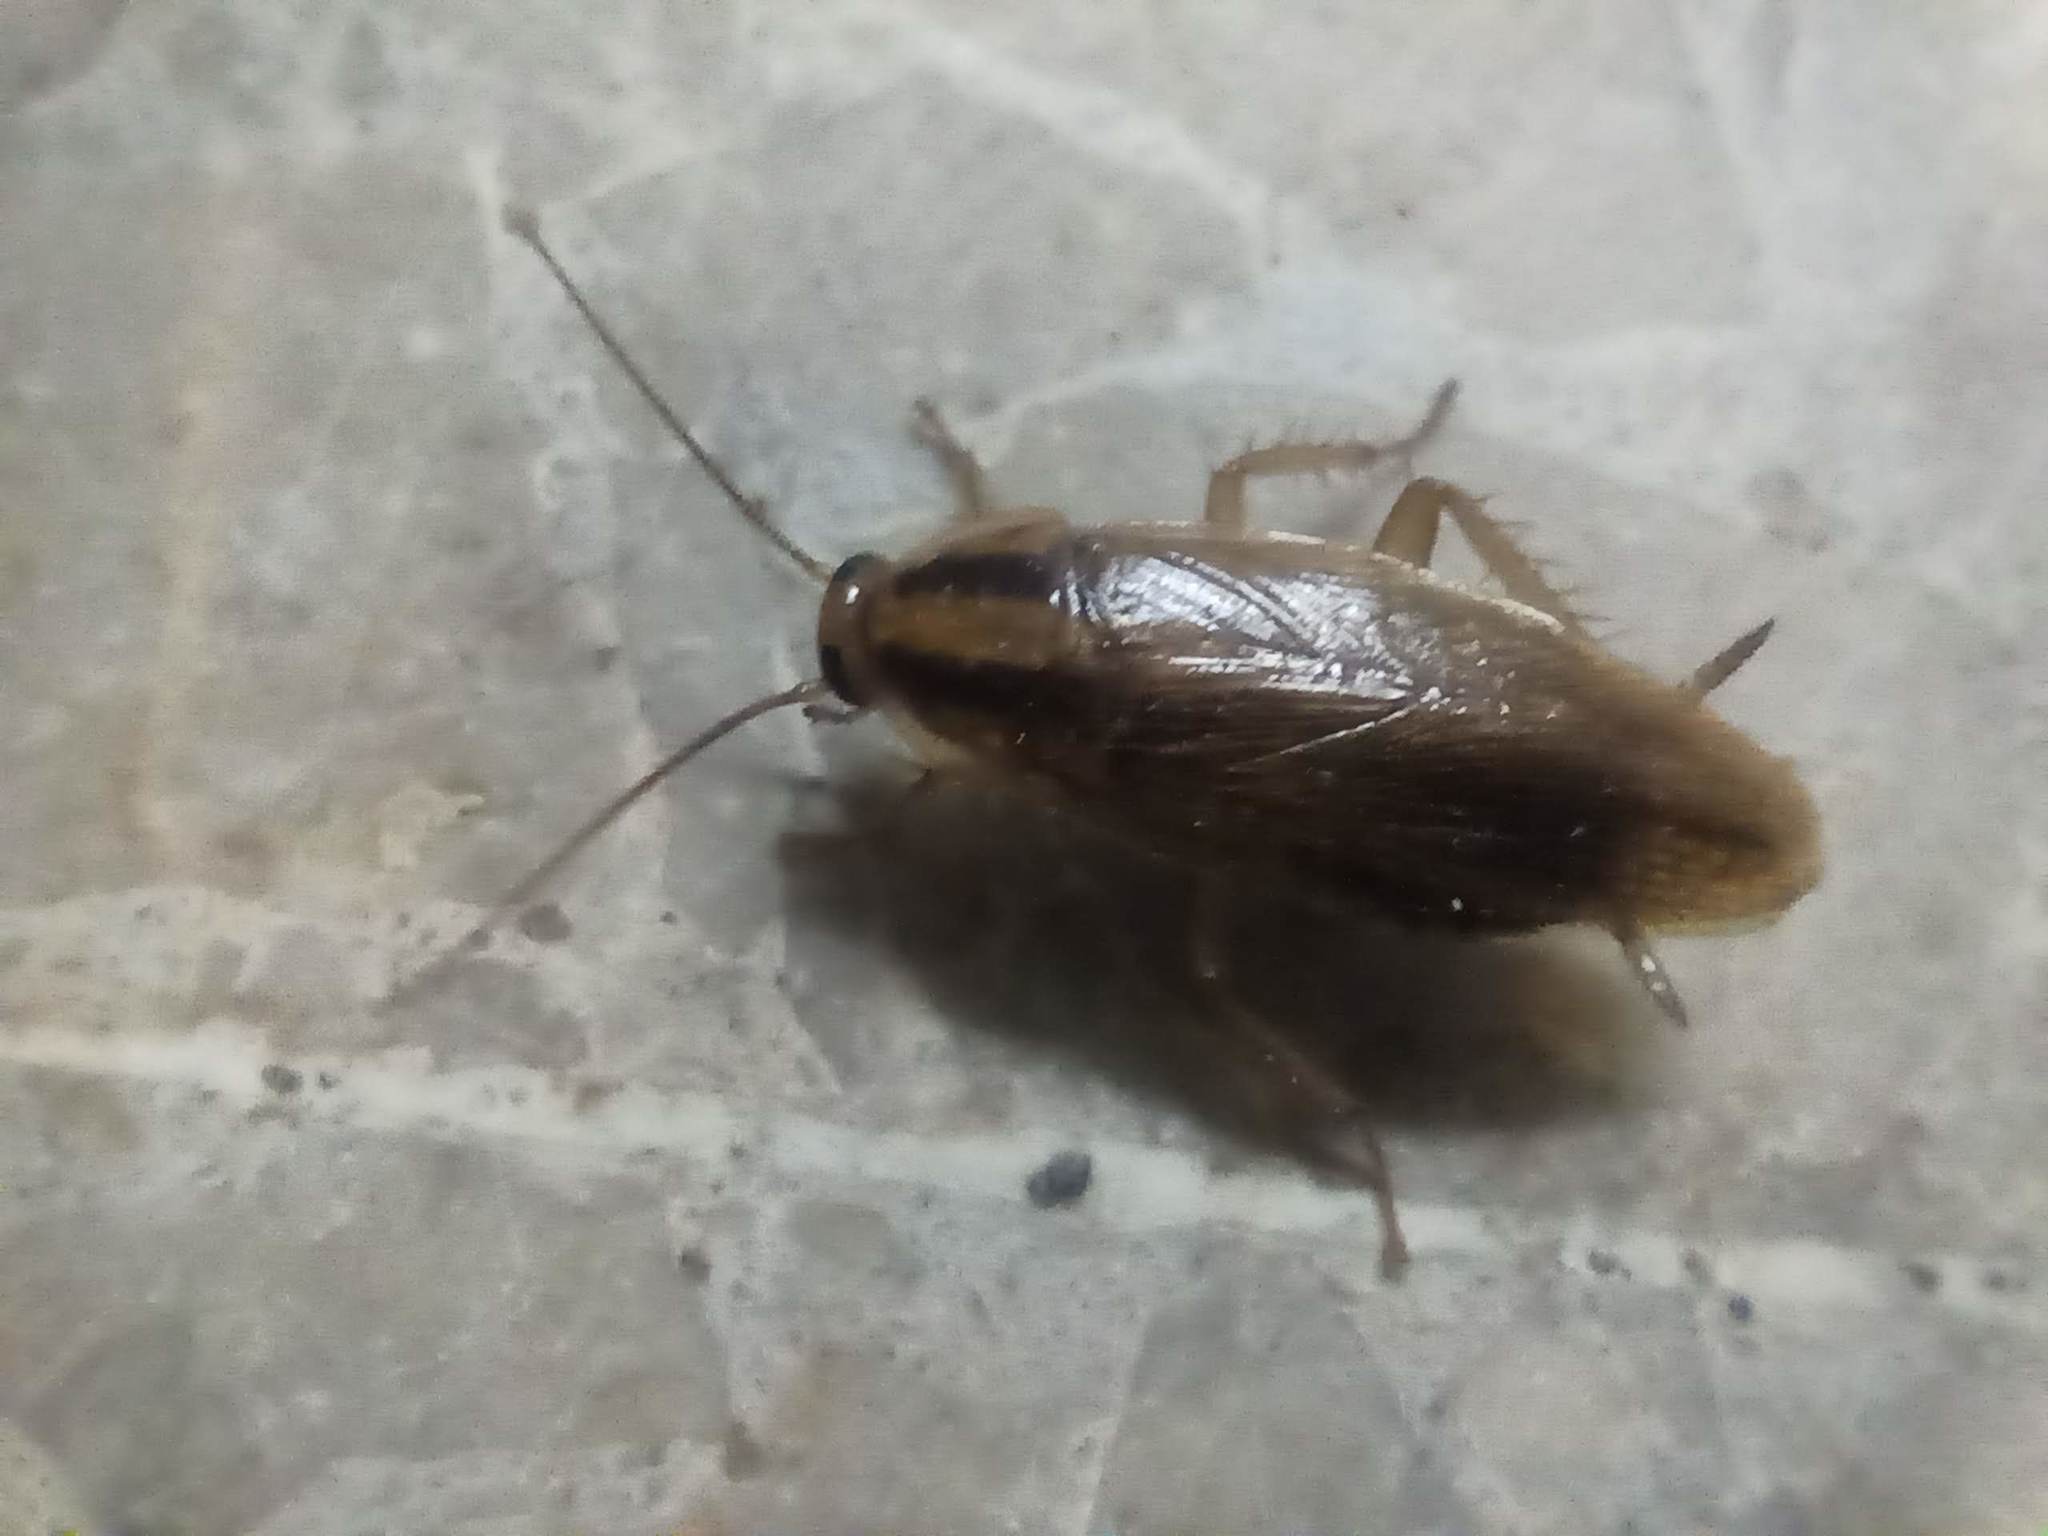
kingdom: Animalia
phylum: Arthropoda
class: Insecta
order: Blattodea
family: Ectobiidae
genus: Blattella
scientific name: Blattella germanica
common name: German cockroach
